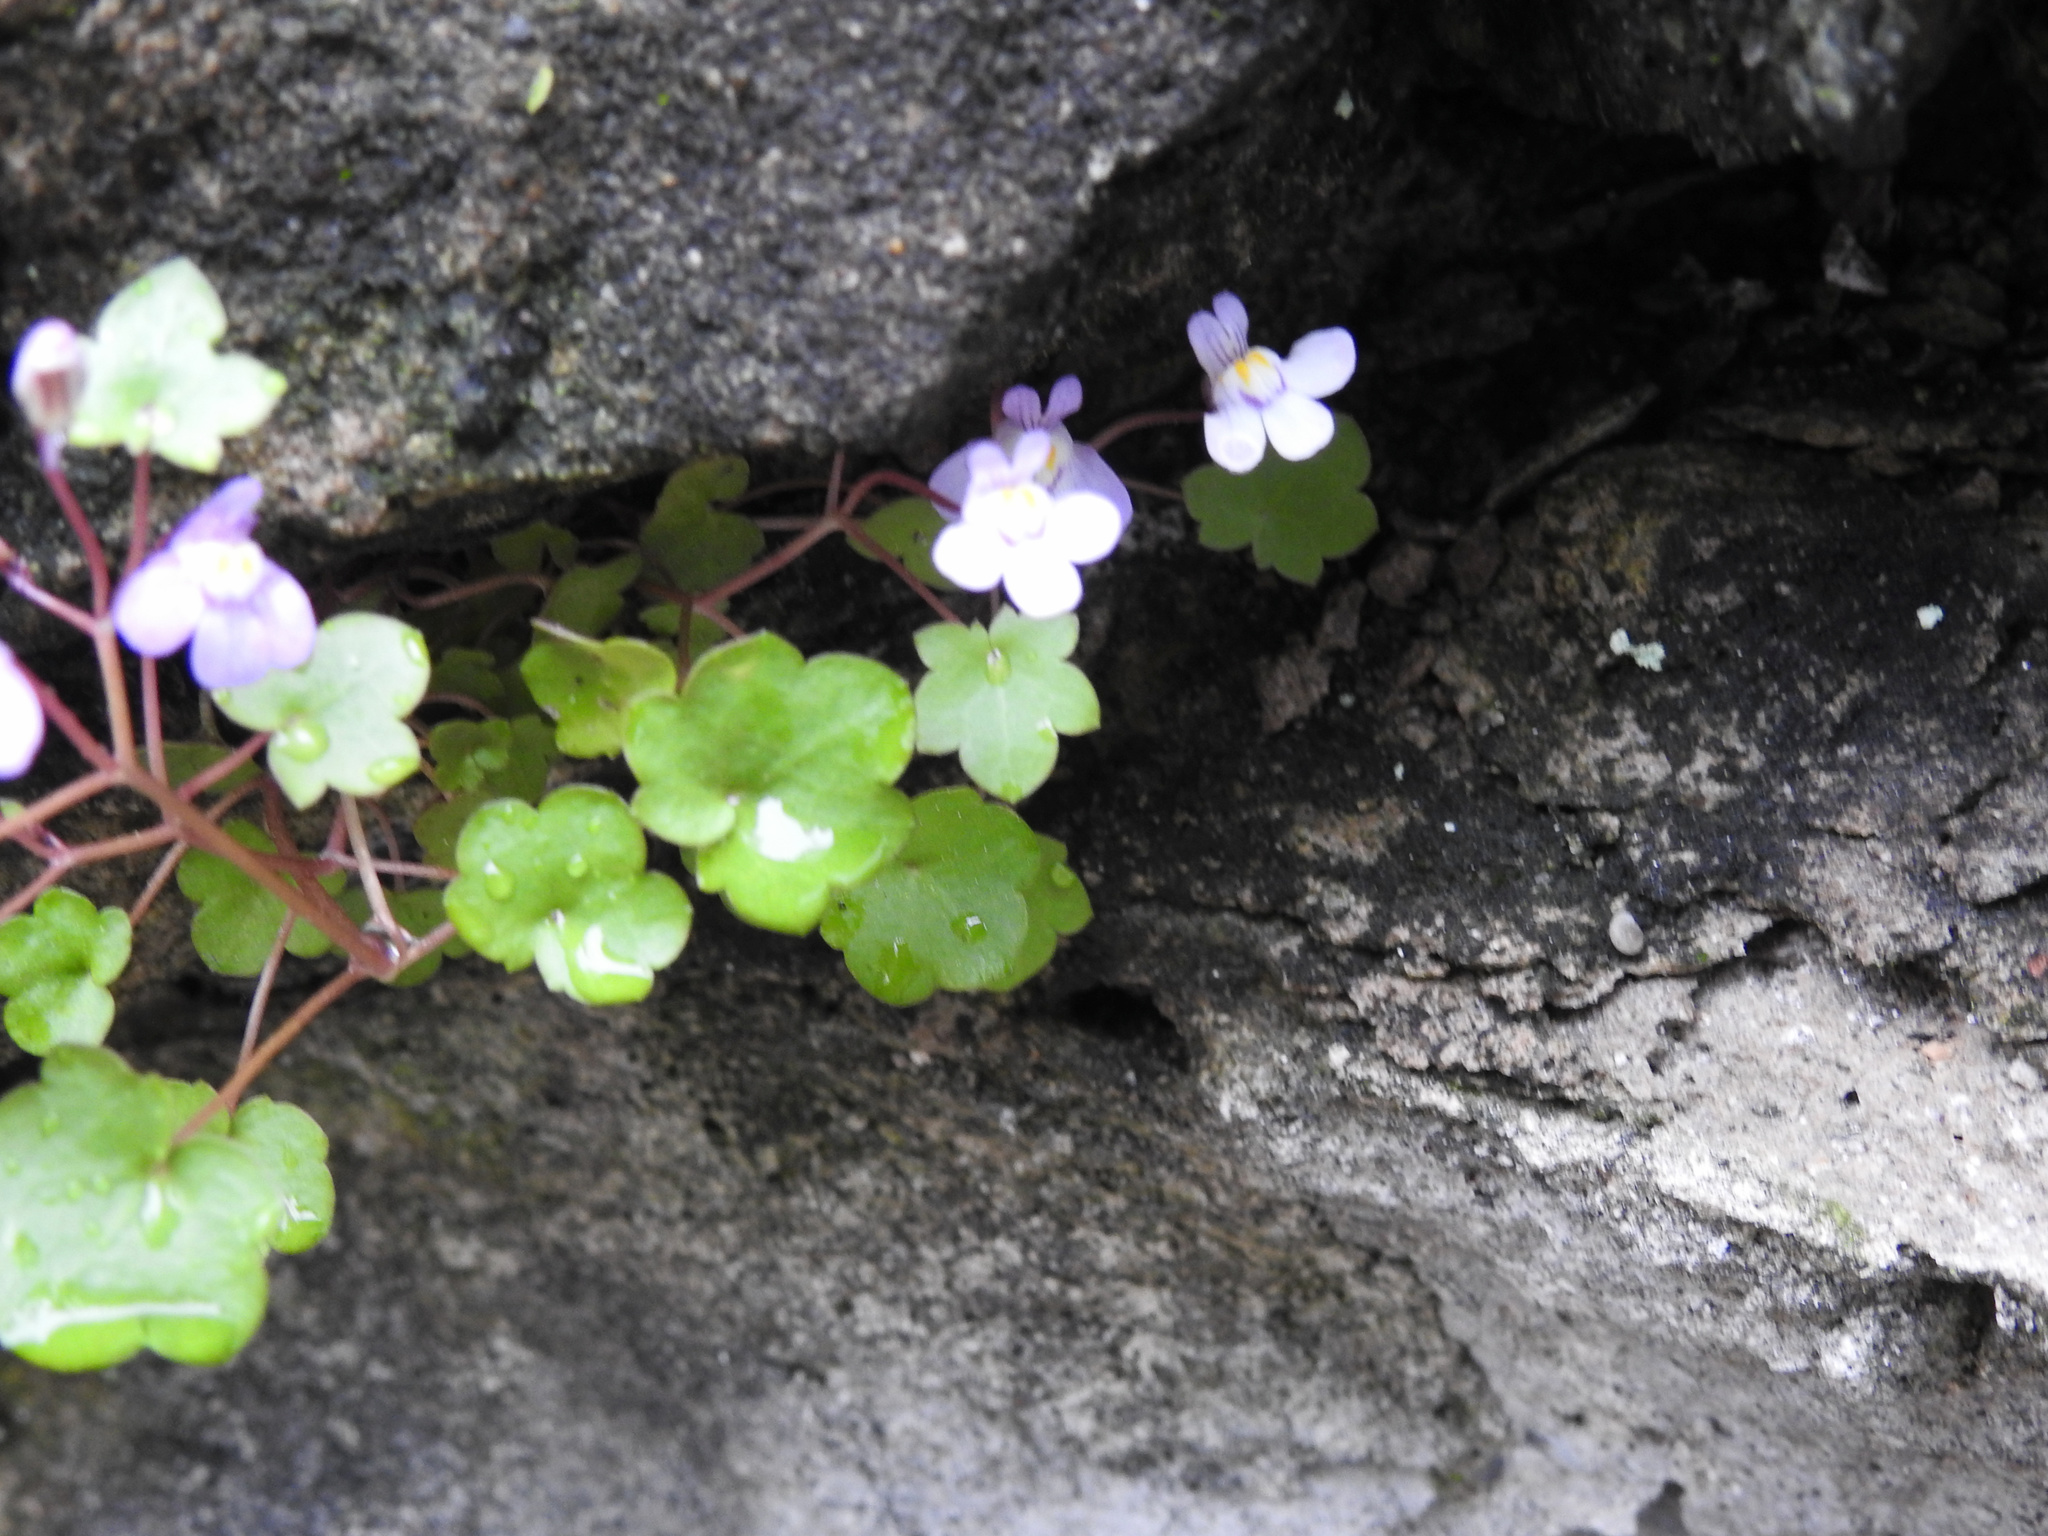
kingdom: Plantae
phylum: Tracheophyta
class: Magnoliopsida
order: Lamiales
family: Plantaginaceae
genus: Cymbalaria
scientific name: Cymbalaria muralis
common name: Ivy-leaved toadflax
